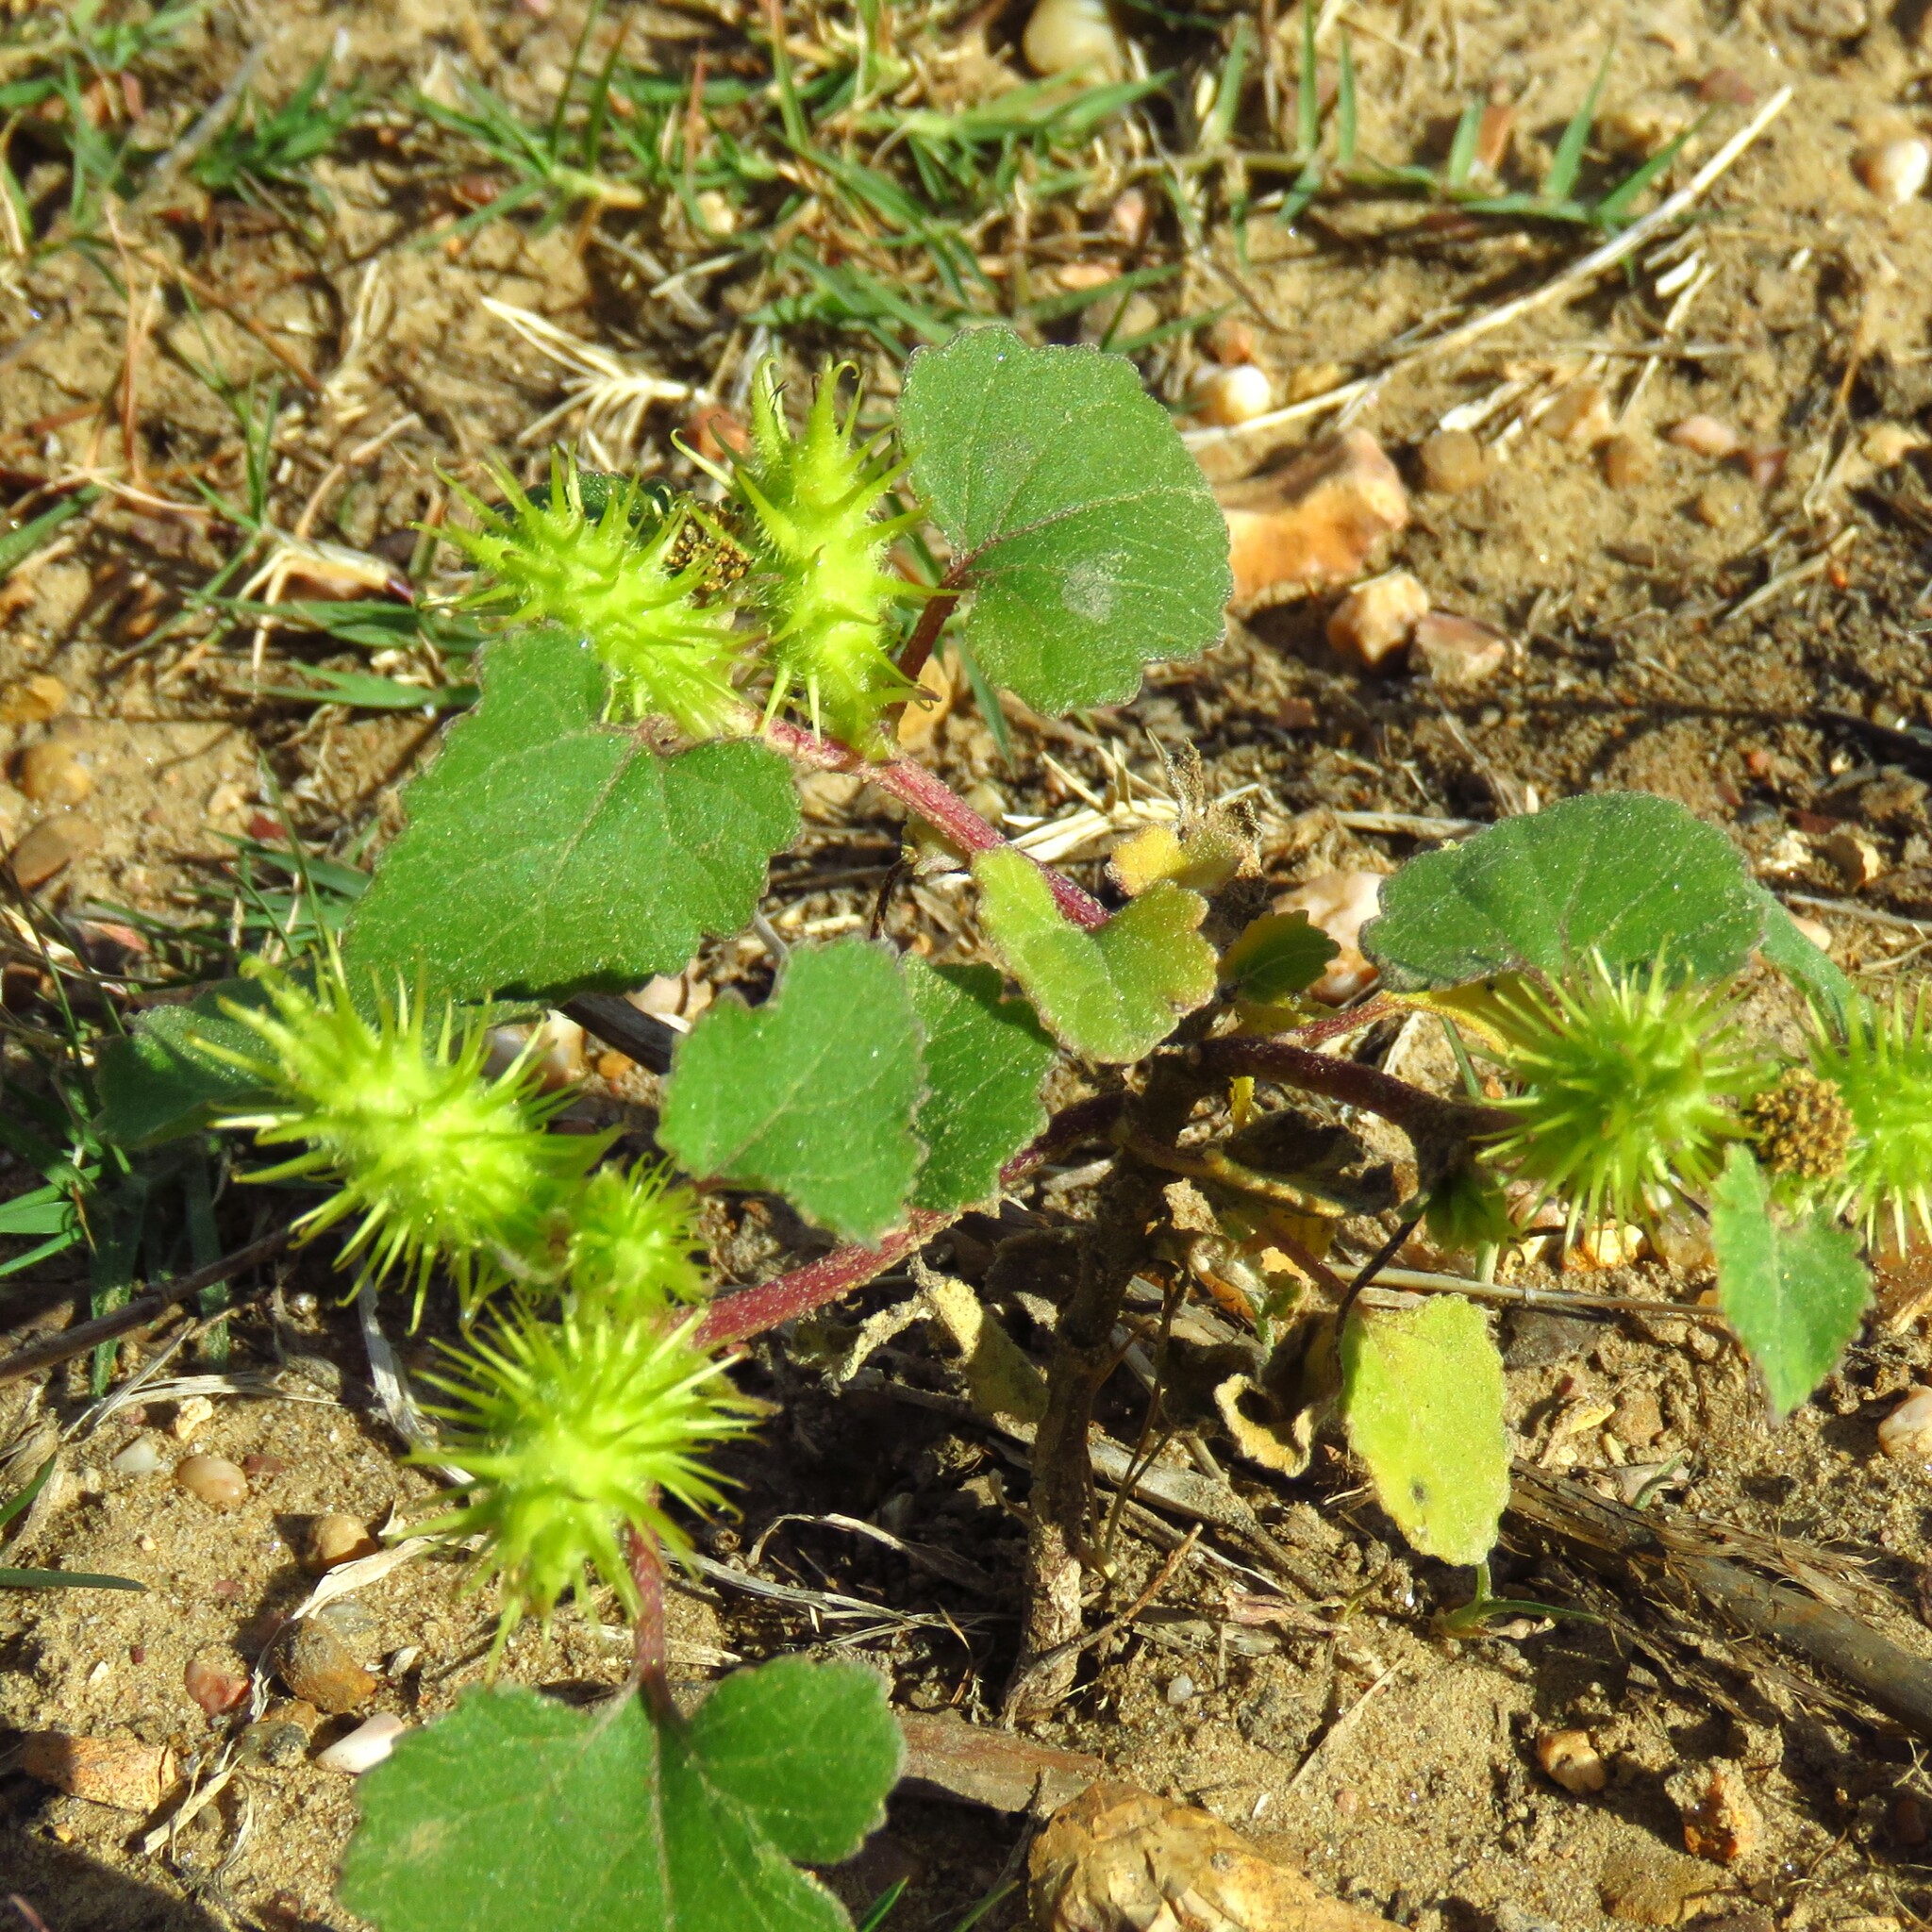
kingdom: Plantae
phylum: Tracheophyta
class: Magnoliopsida
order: Asterales
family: Asteraceae
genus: Xanthium
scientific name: Xanthium strumarium
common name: Rough cocklebur
